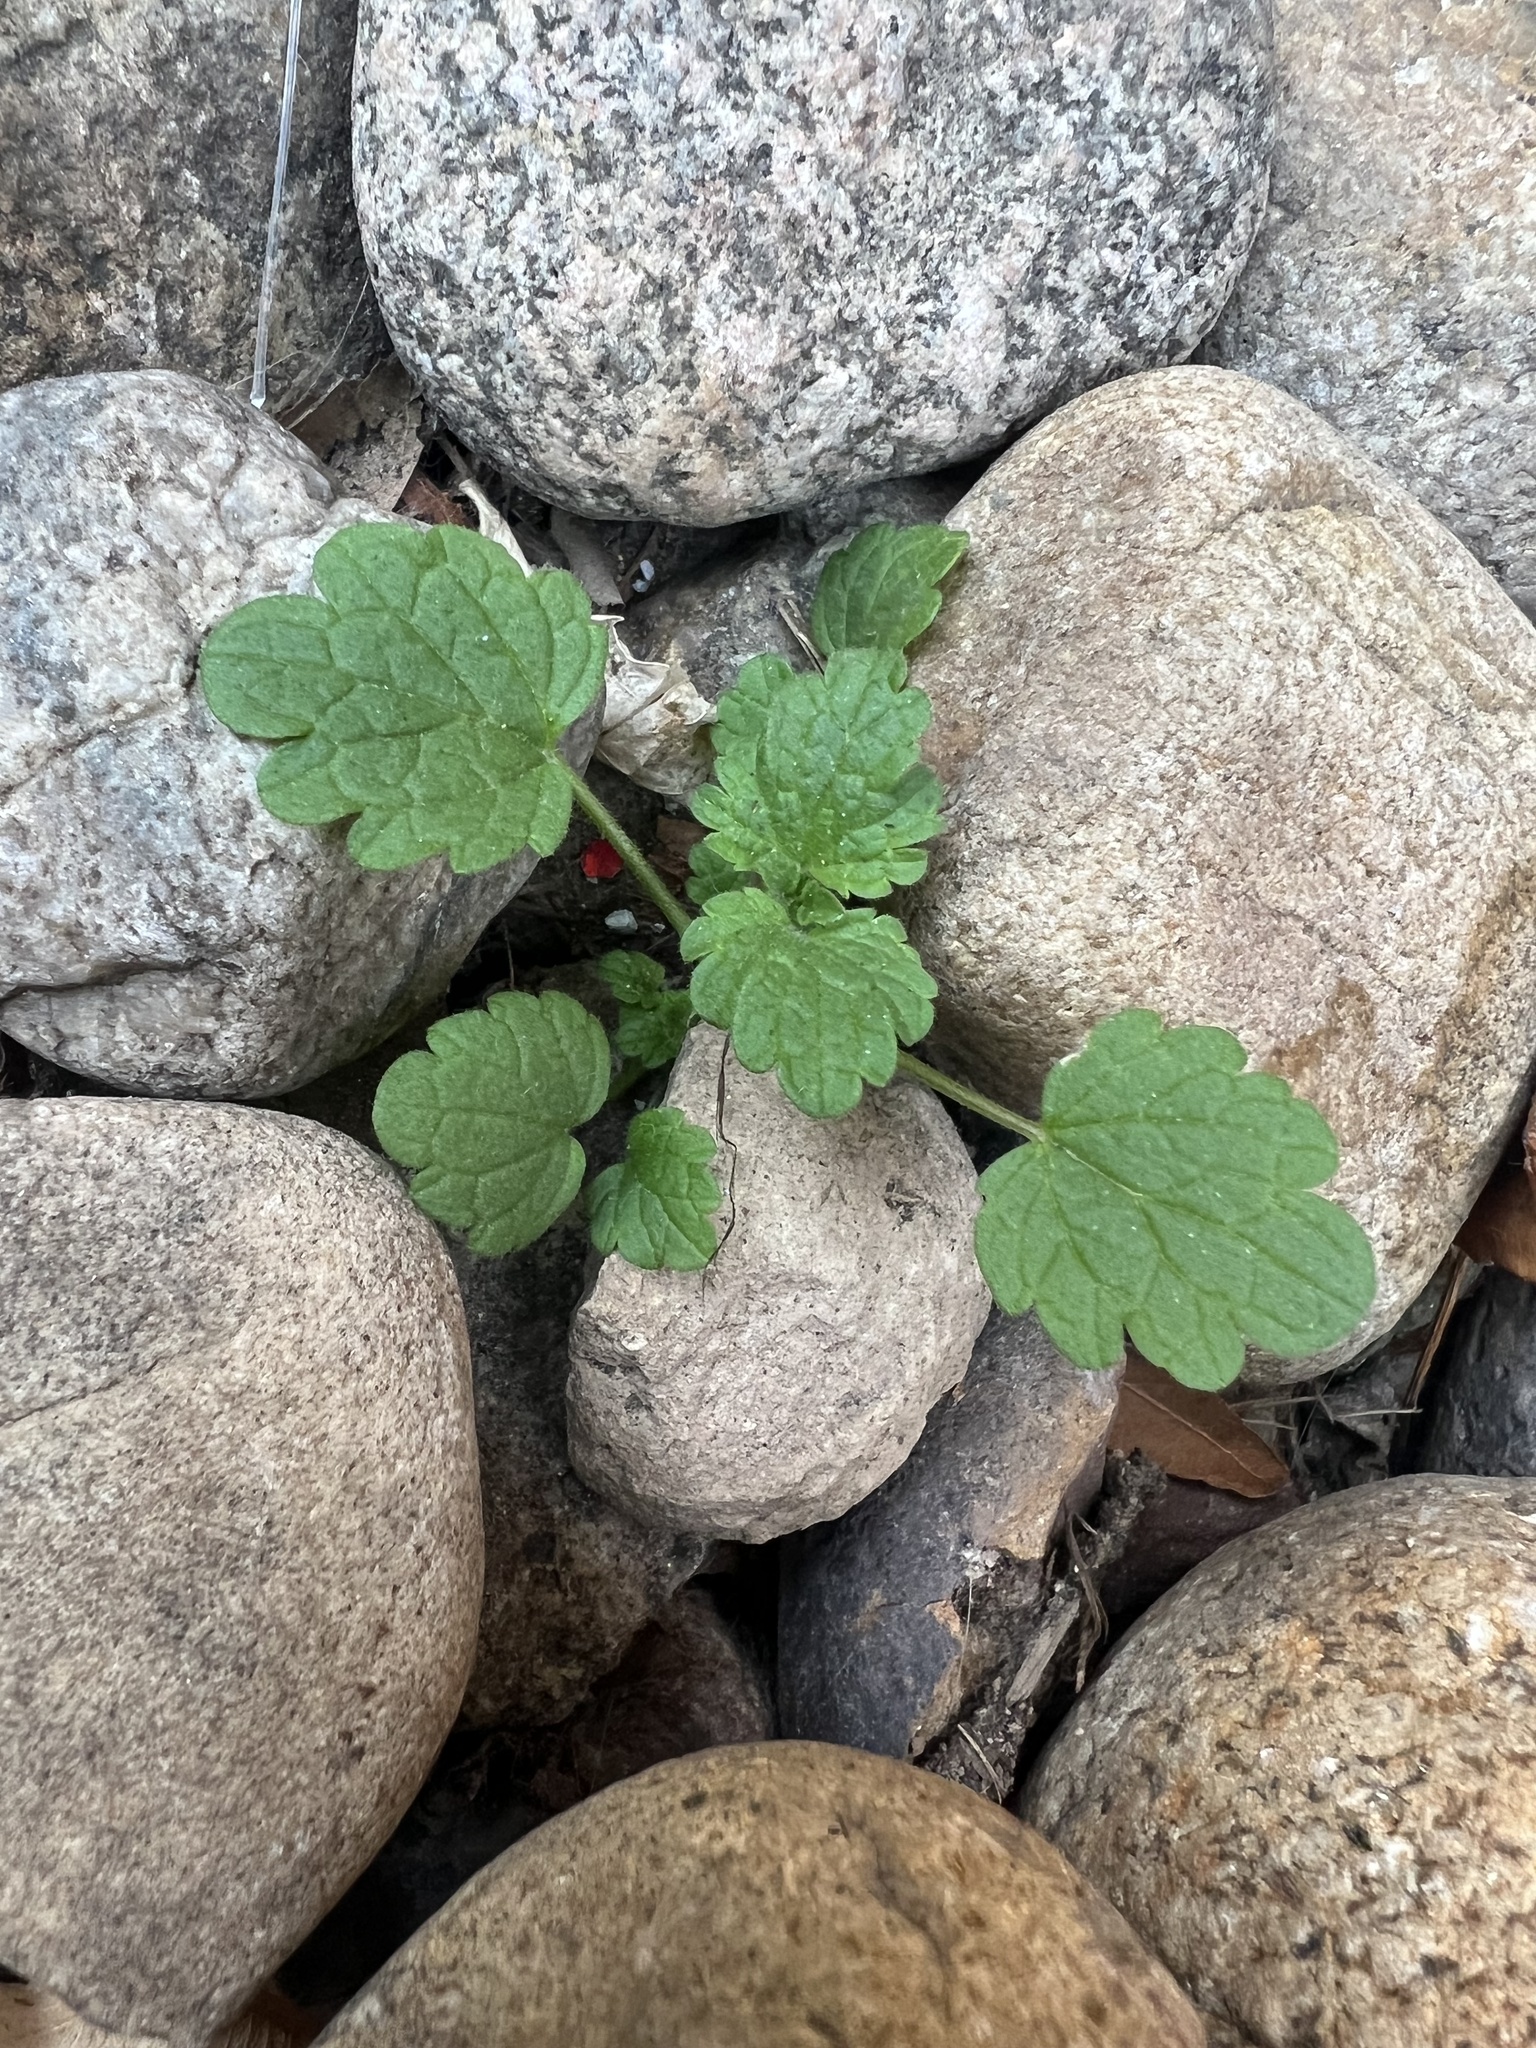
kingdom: Plantae
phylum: Tracheophyta
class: Magnoliopsida
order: Lamiales
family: Lamiaceae
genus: Lamium
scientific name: Lamium amplexicaule
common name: Henbit dead-nettle
